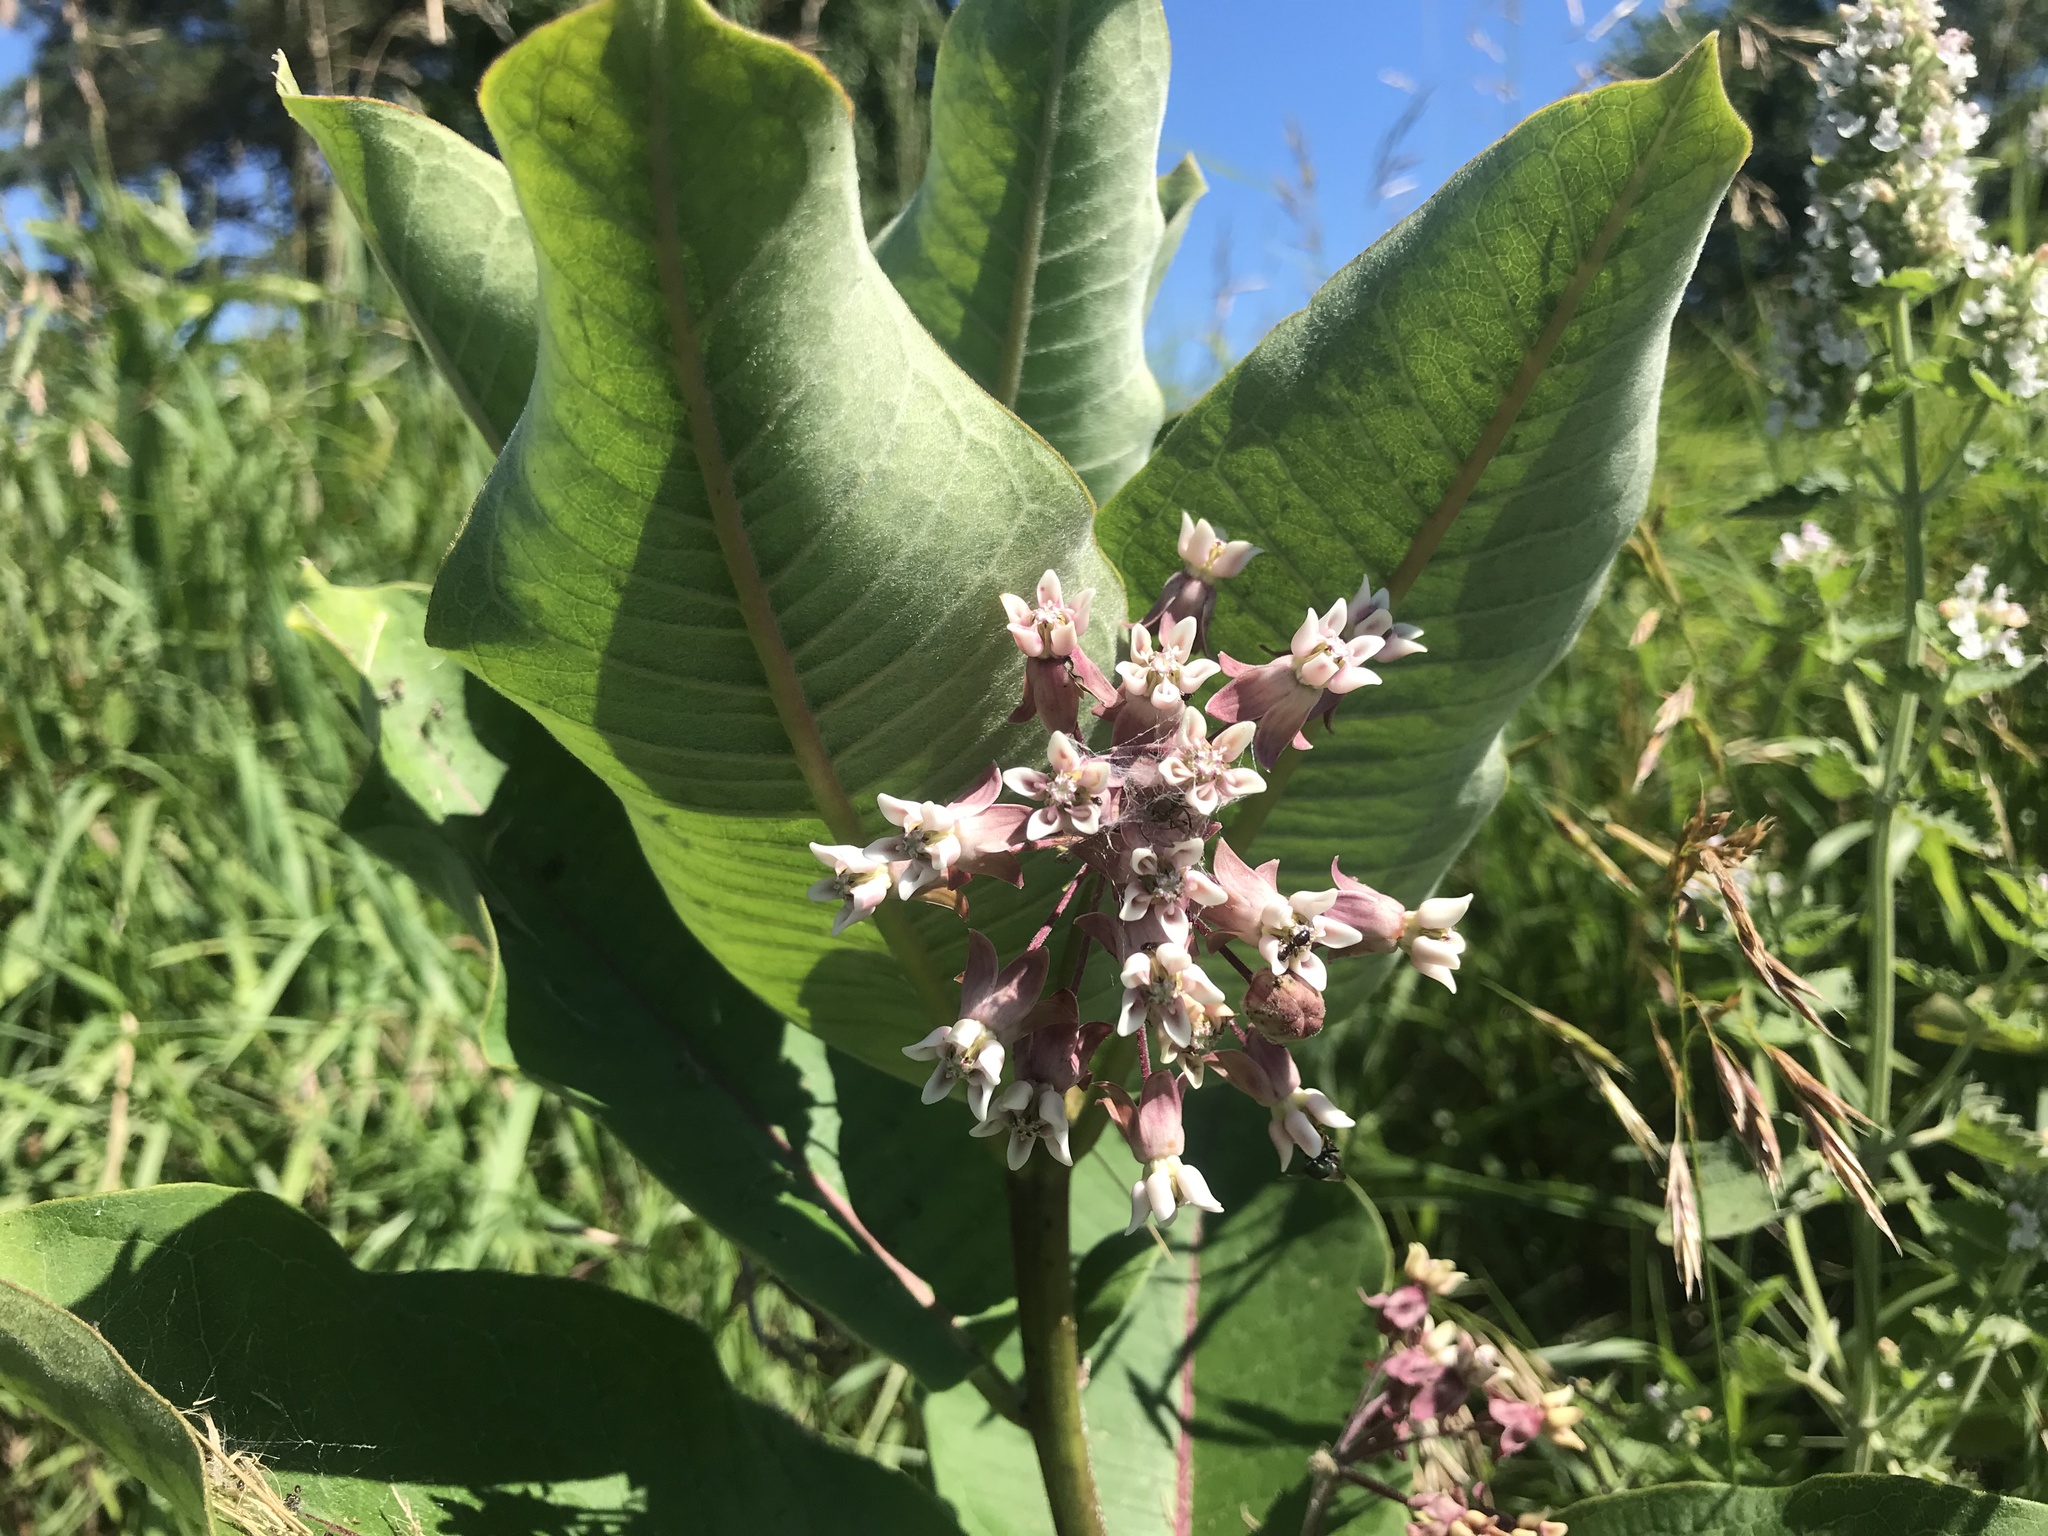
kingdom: Plantae
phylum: Tracheophyta
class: Magnoliopsida
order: Gentianales
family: Apocynaceae
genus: Asclepias
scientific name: Asclepias syriaca
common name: Common milkweed
